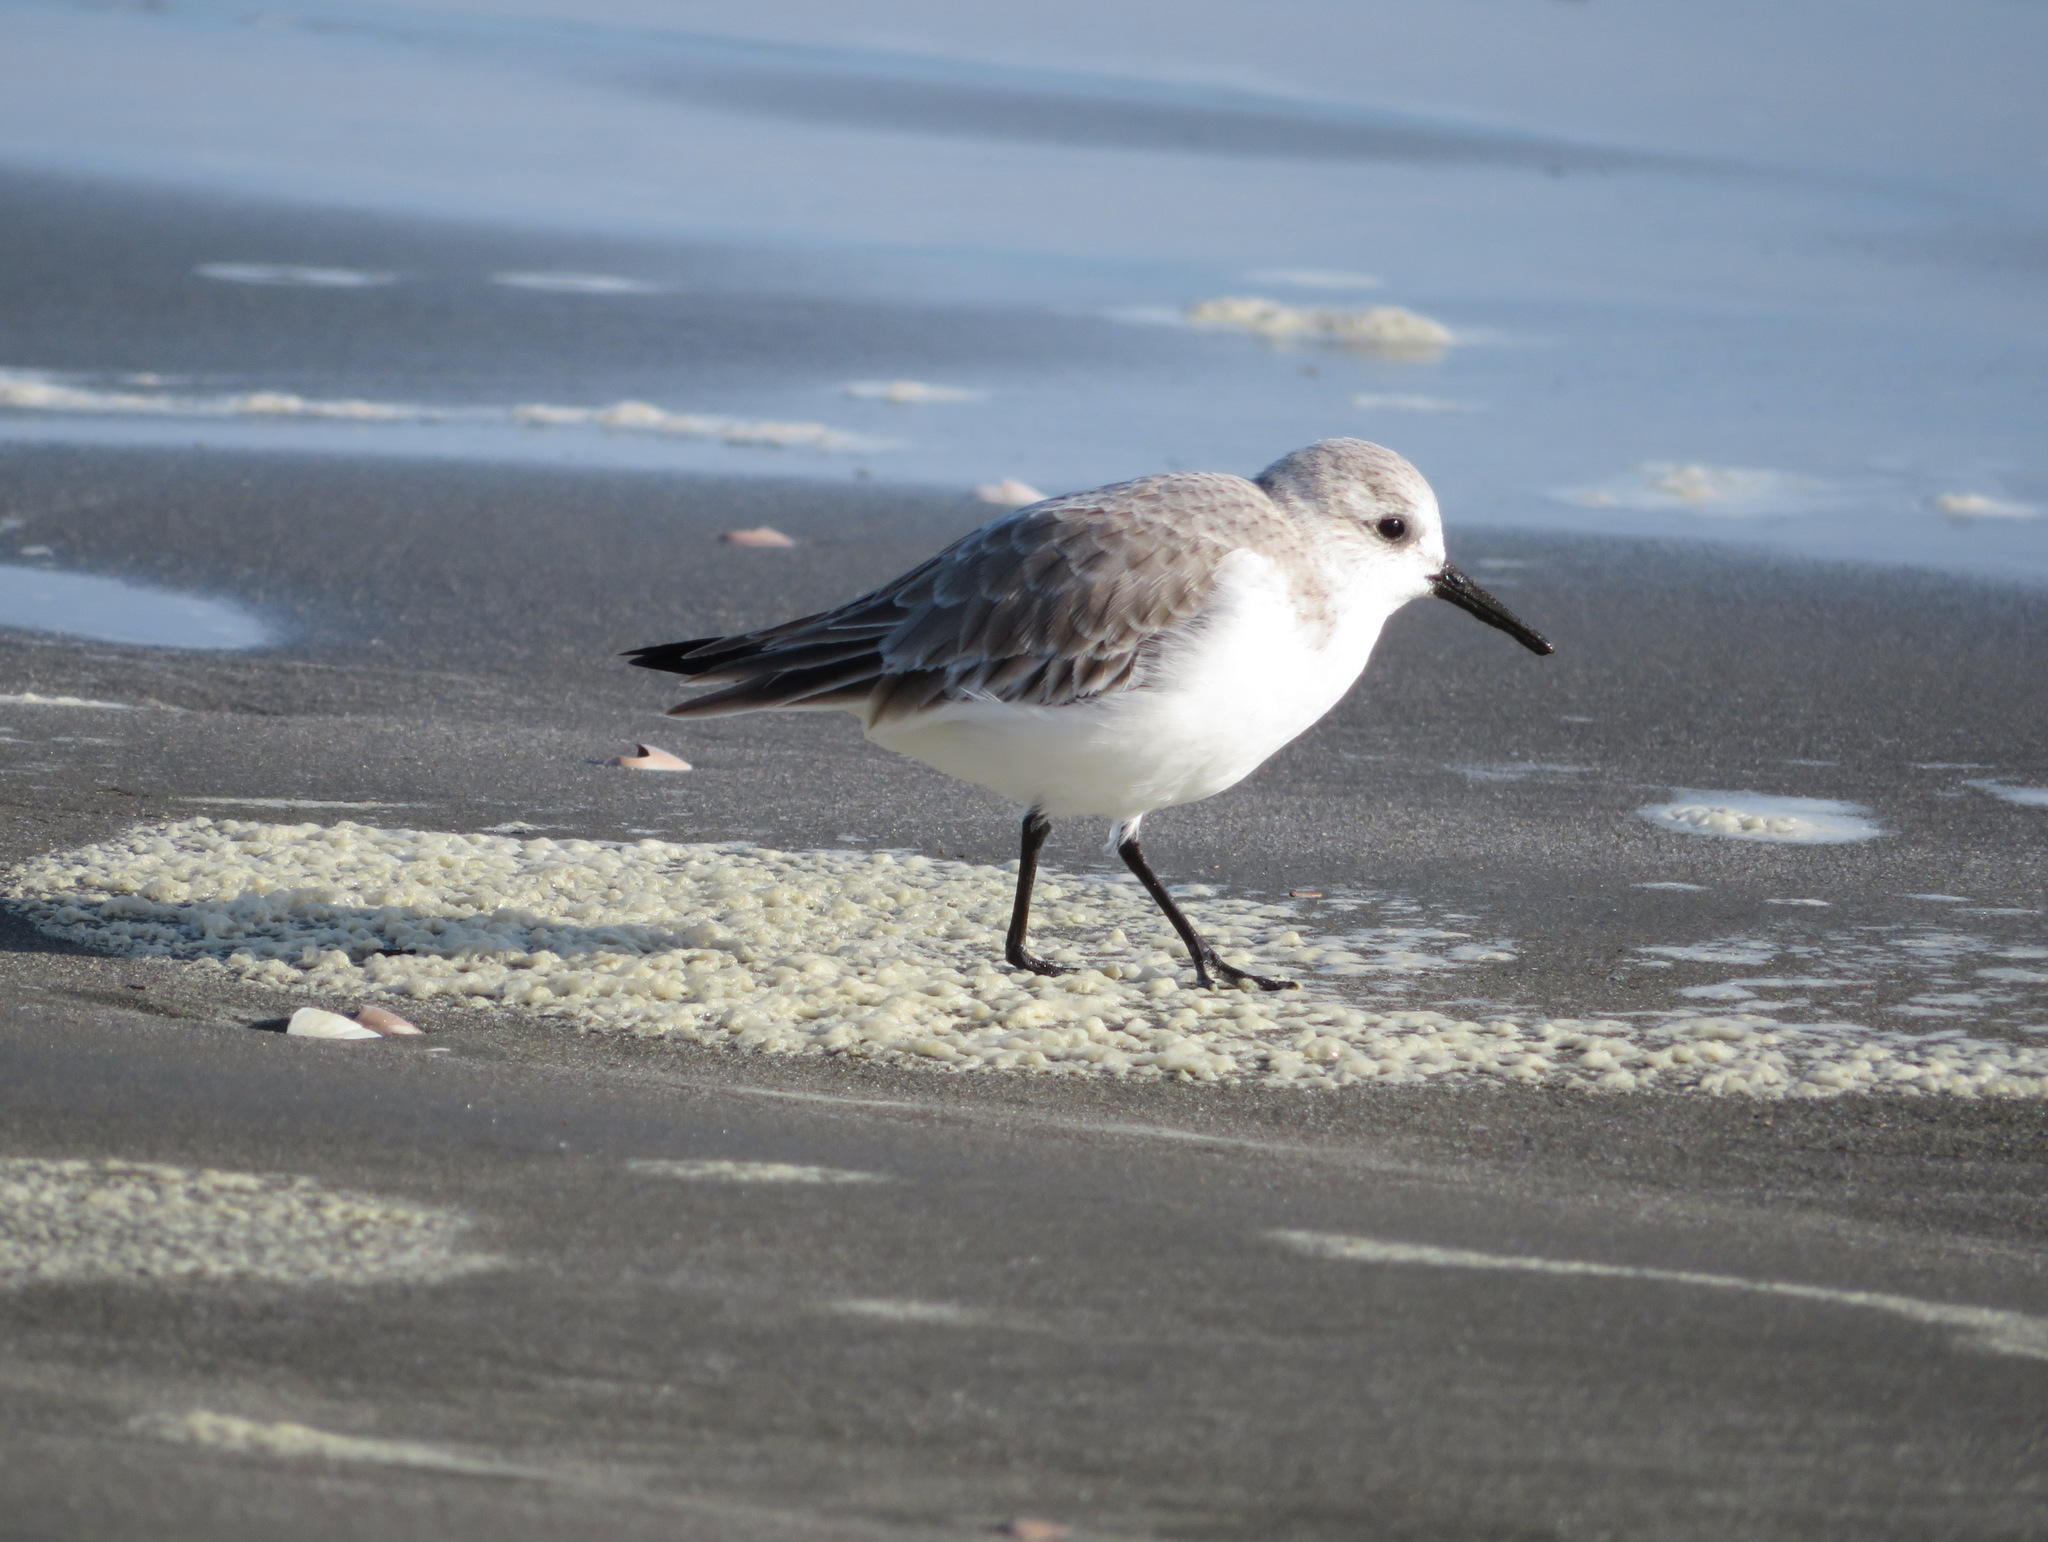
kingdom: Animalia
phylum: Chordata
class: Aves
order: Charadriiformes
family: Scolopacidae
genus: Calidris
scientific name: Calidris alba
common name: Sanderling
